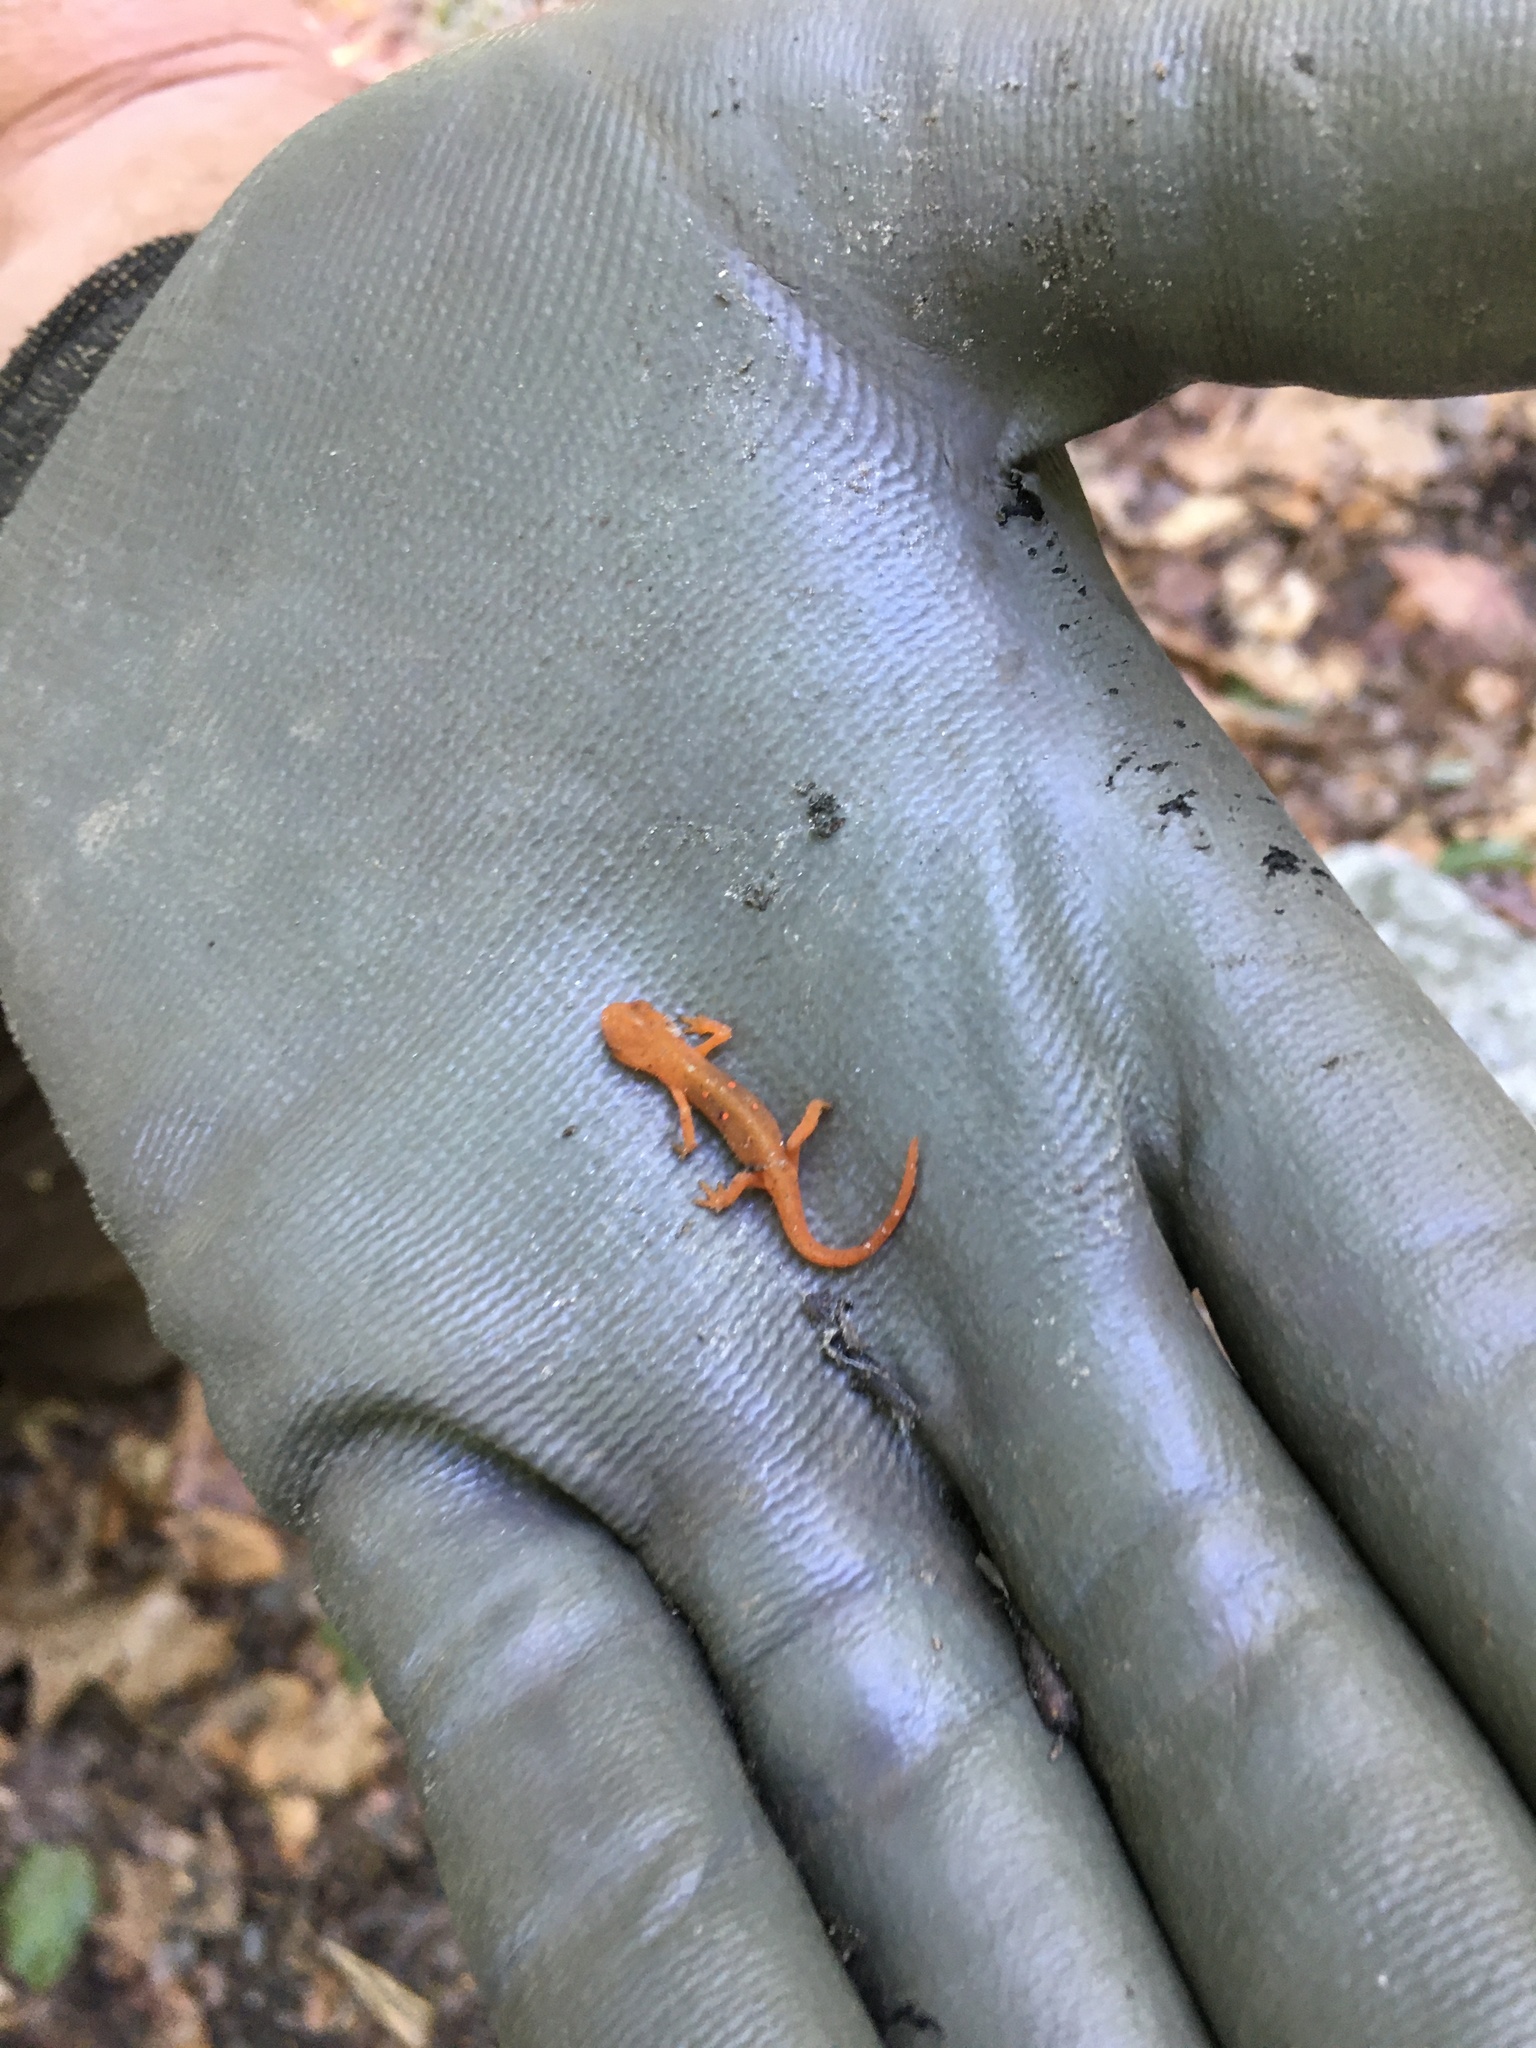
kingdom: Animalia
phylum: Chordata
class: Amphibia
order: Caudata
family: Salamandridae
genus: Notophthalmus
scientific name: Notophthalmus viridescens
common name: Eastern newt
